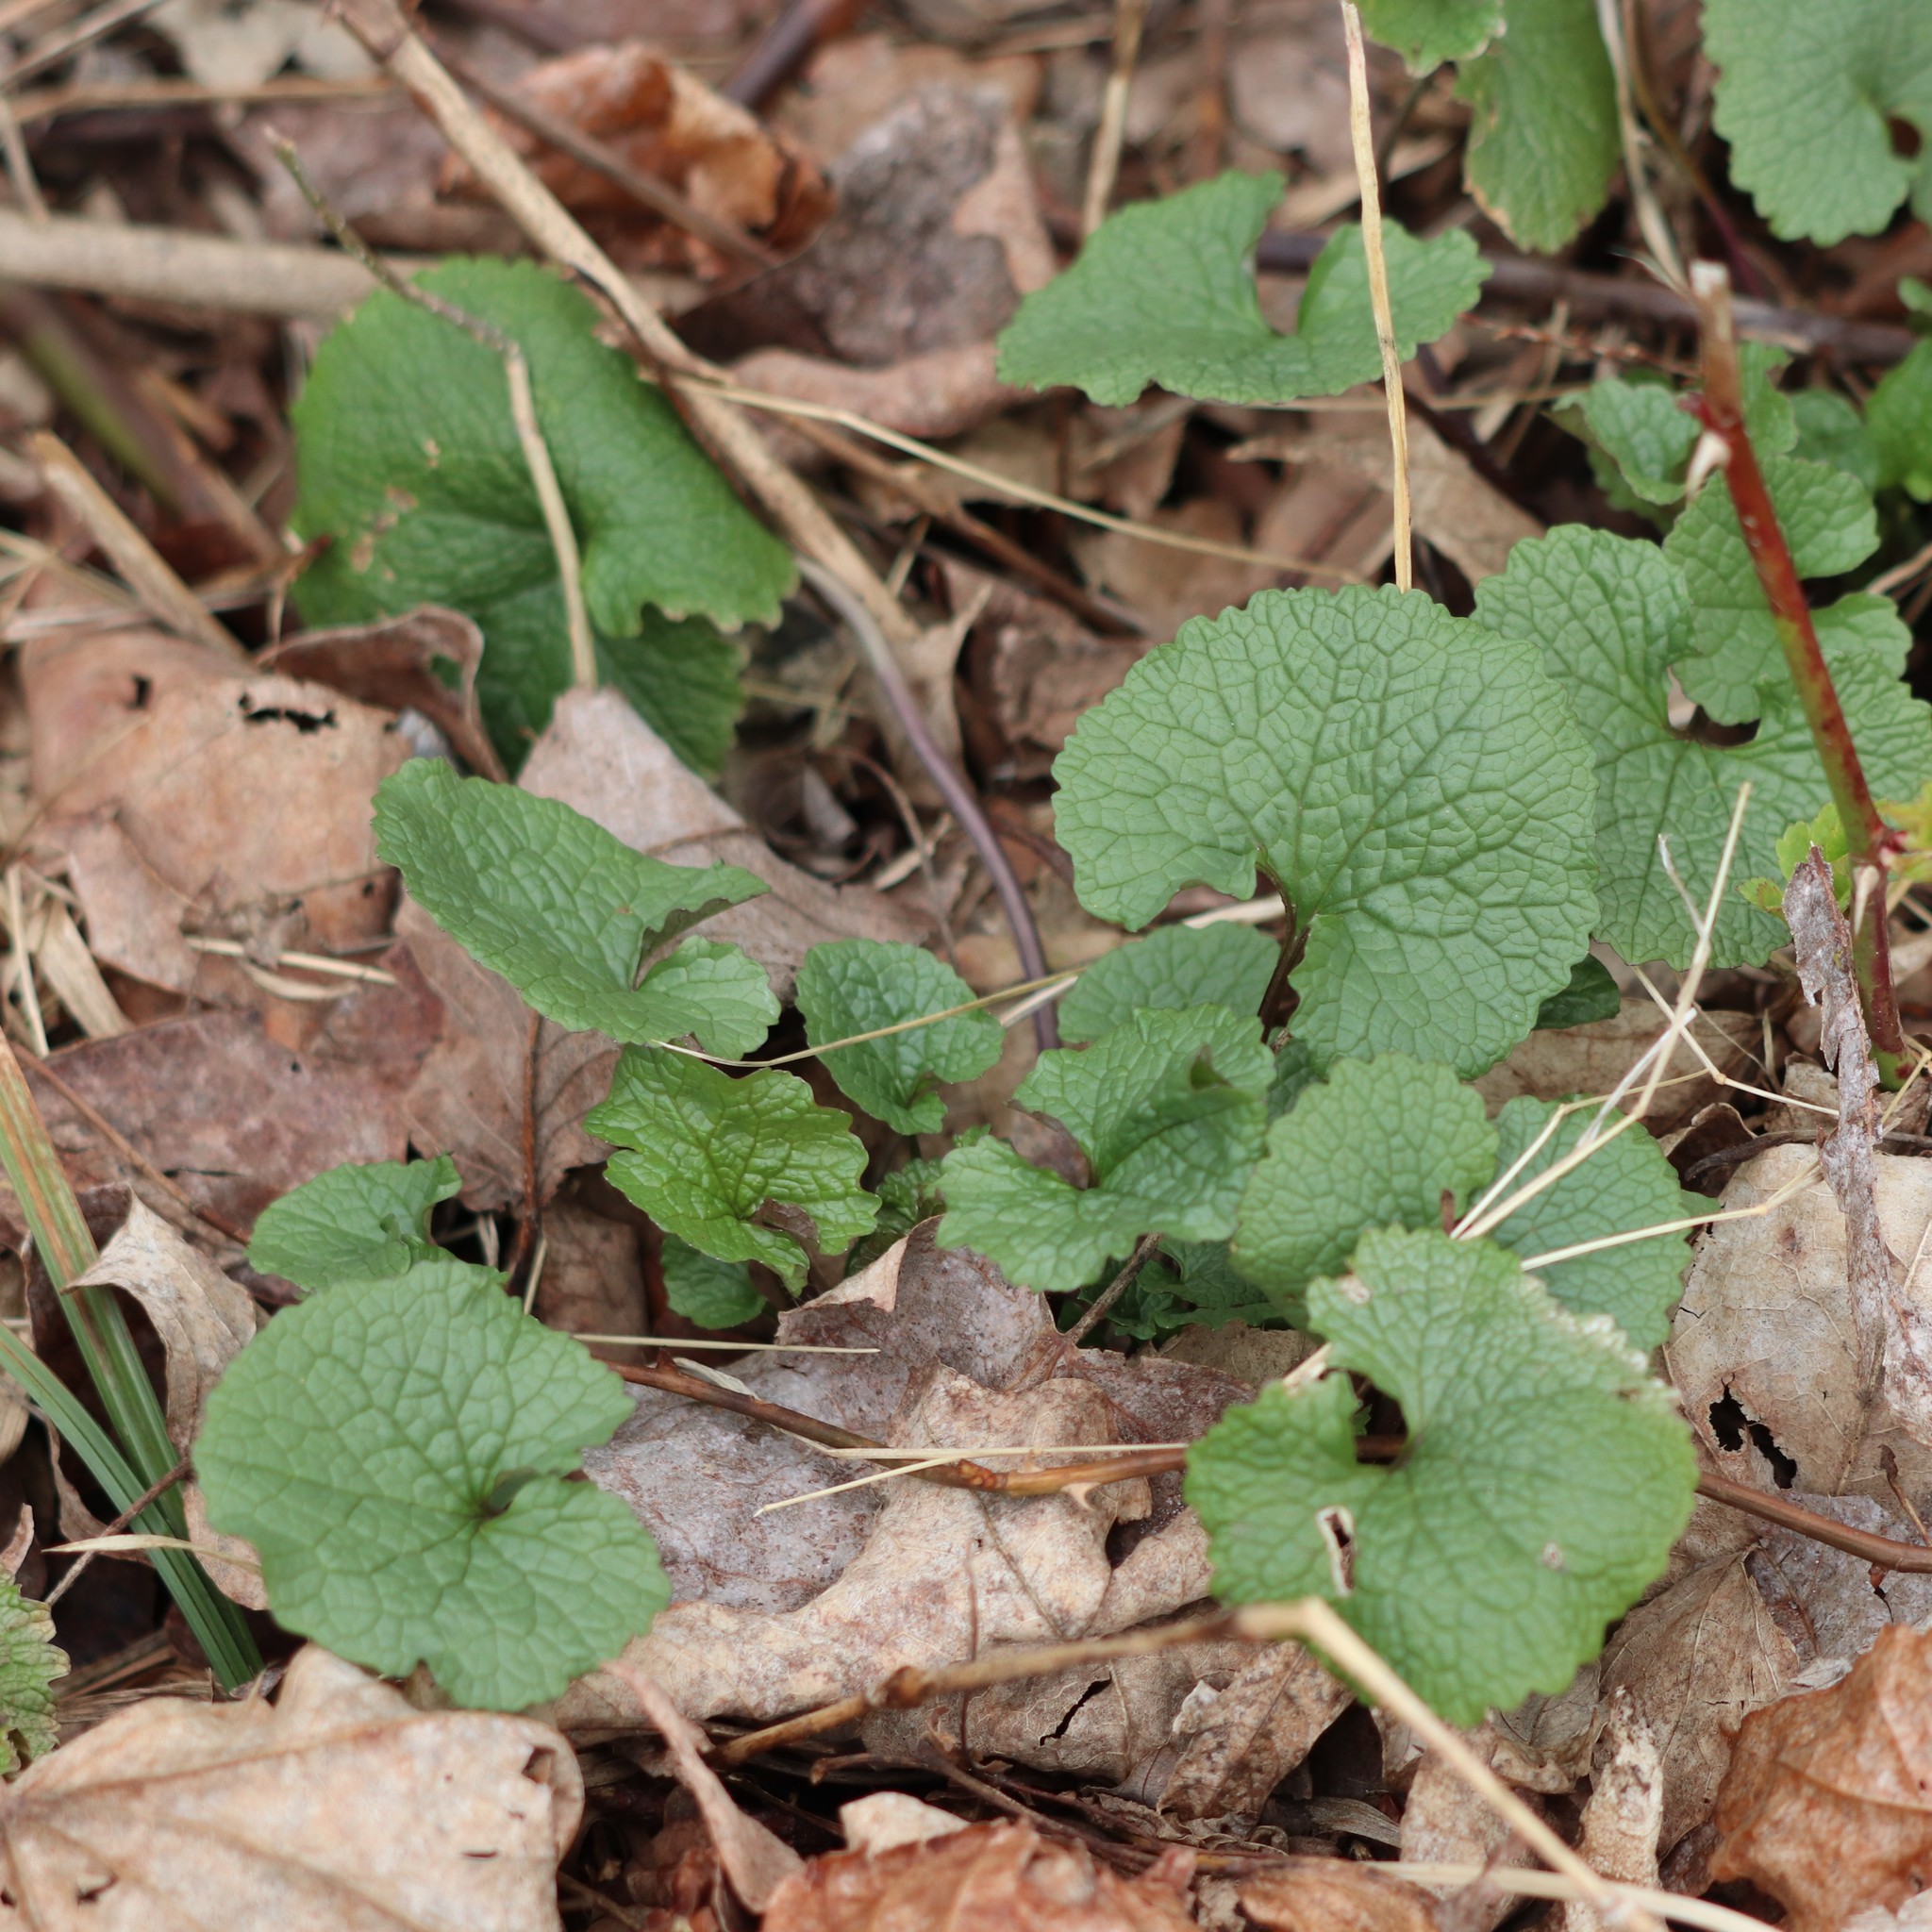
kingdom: Plantae
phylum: Tracheophyta
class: Magnoliopsida
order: Brassicales
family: Brassicaceae
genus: Alliaria
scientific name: Alliaria petiolata
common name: Garlic mustard
